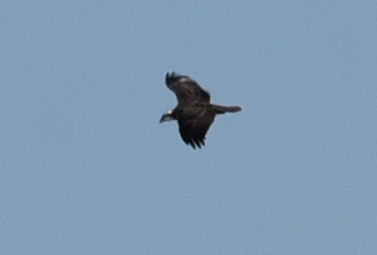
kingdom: Animalia
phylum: Chordata
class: Aves
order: Accipitriformes
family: Pandionidae
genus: Pandion
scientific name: Pandion haliaetus
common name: Osprey
